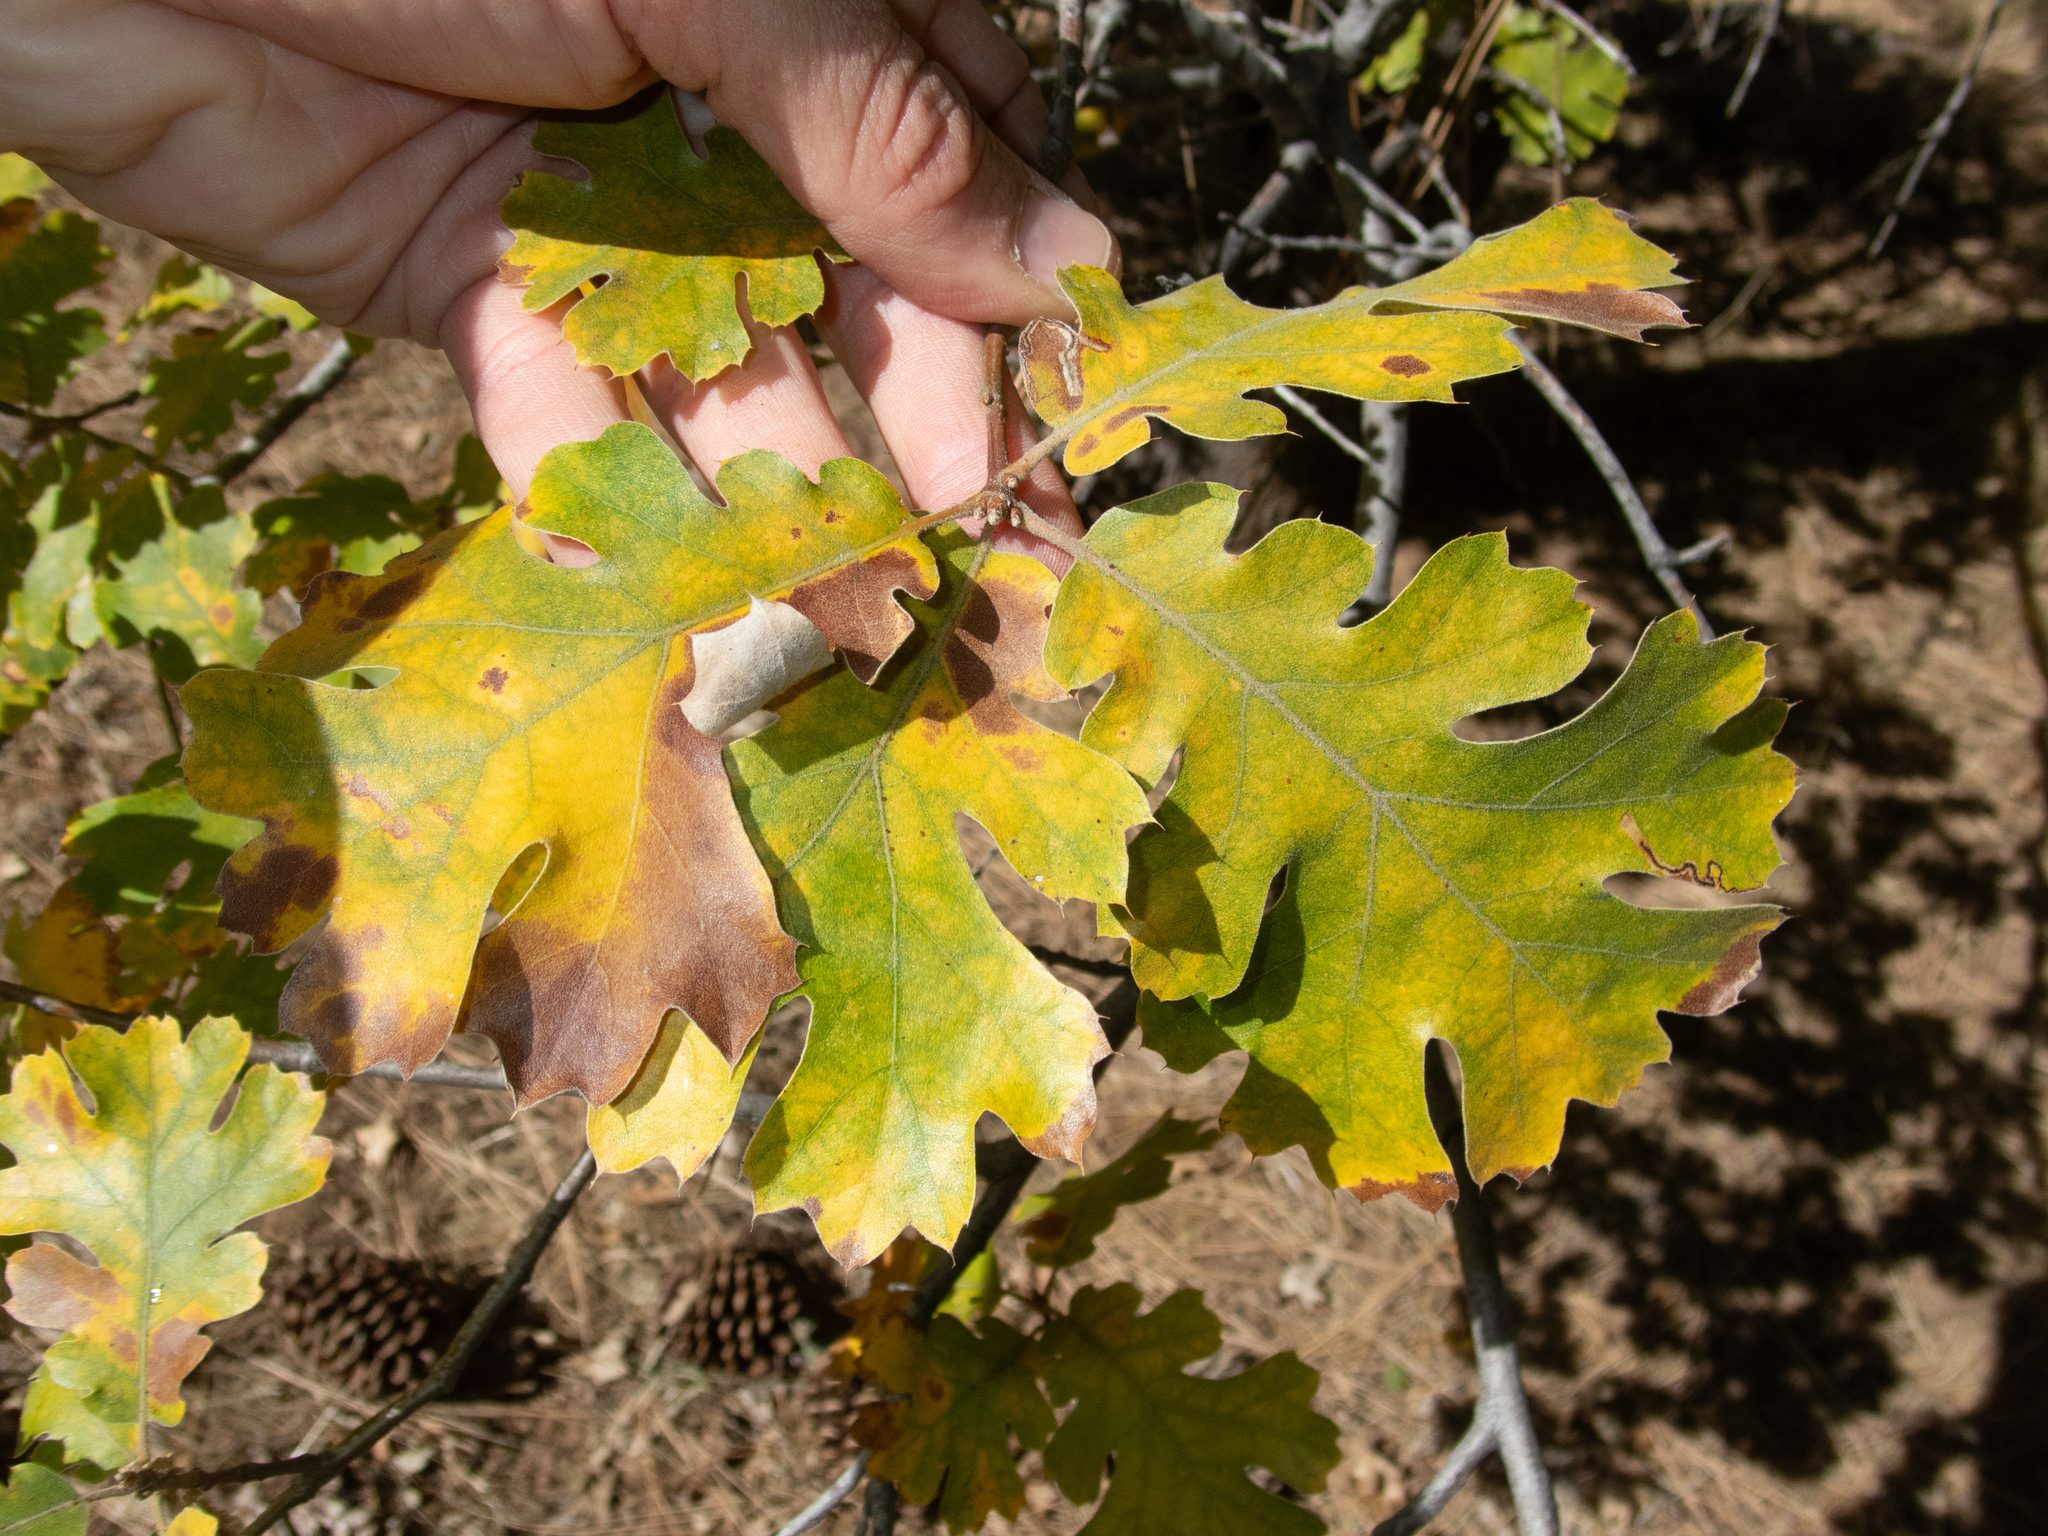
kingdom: Plantae
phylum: Tracheophyta
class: Magnoliopsida
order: Fagales
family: Fagaceae
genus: Quercus
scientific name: Quercus kelloggii
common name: California black oak
